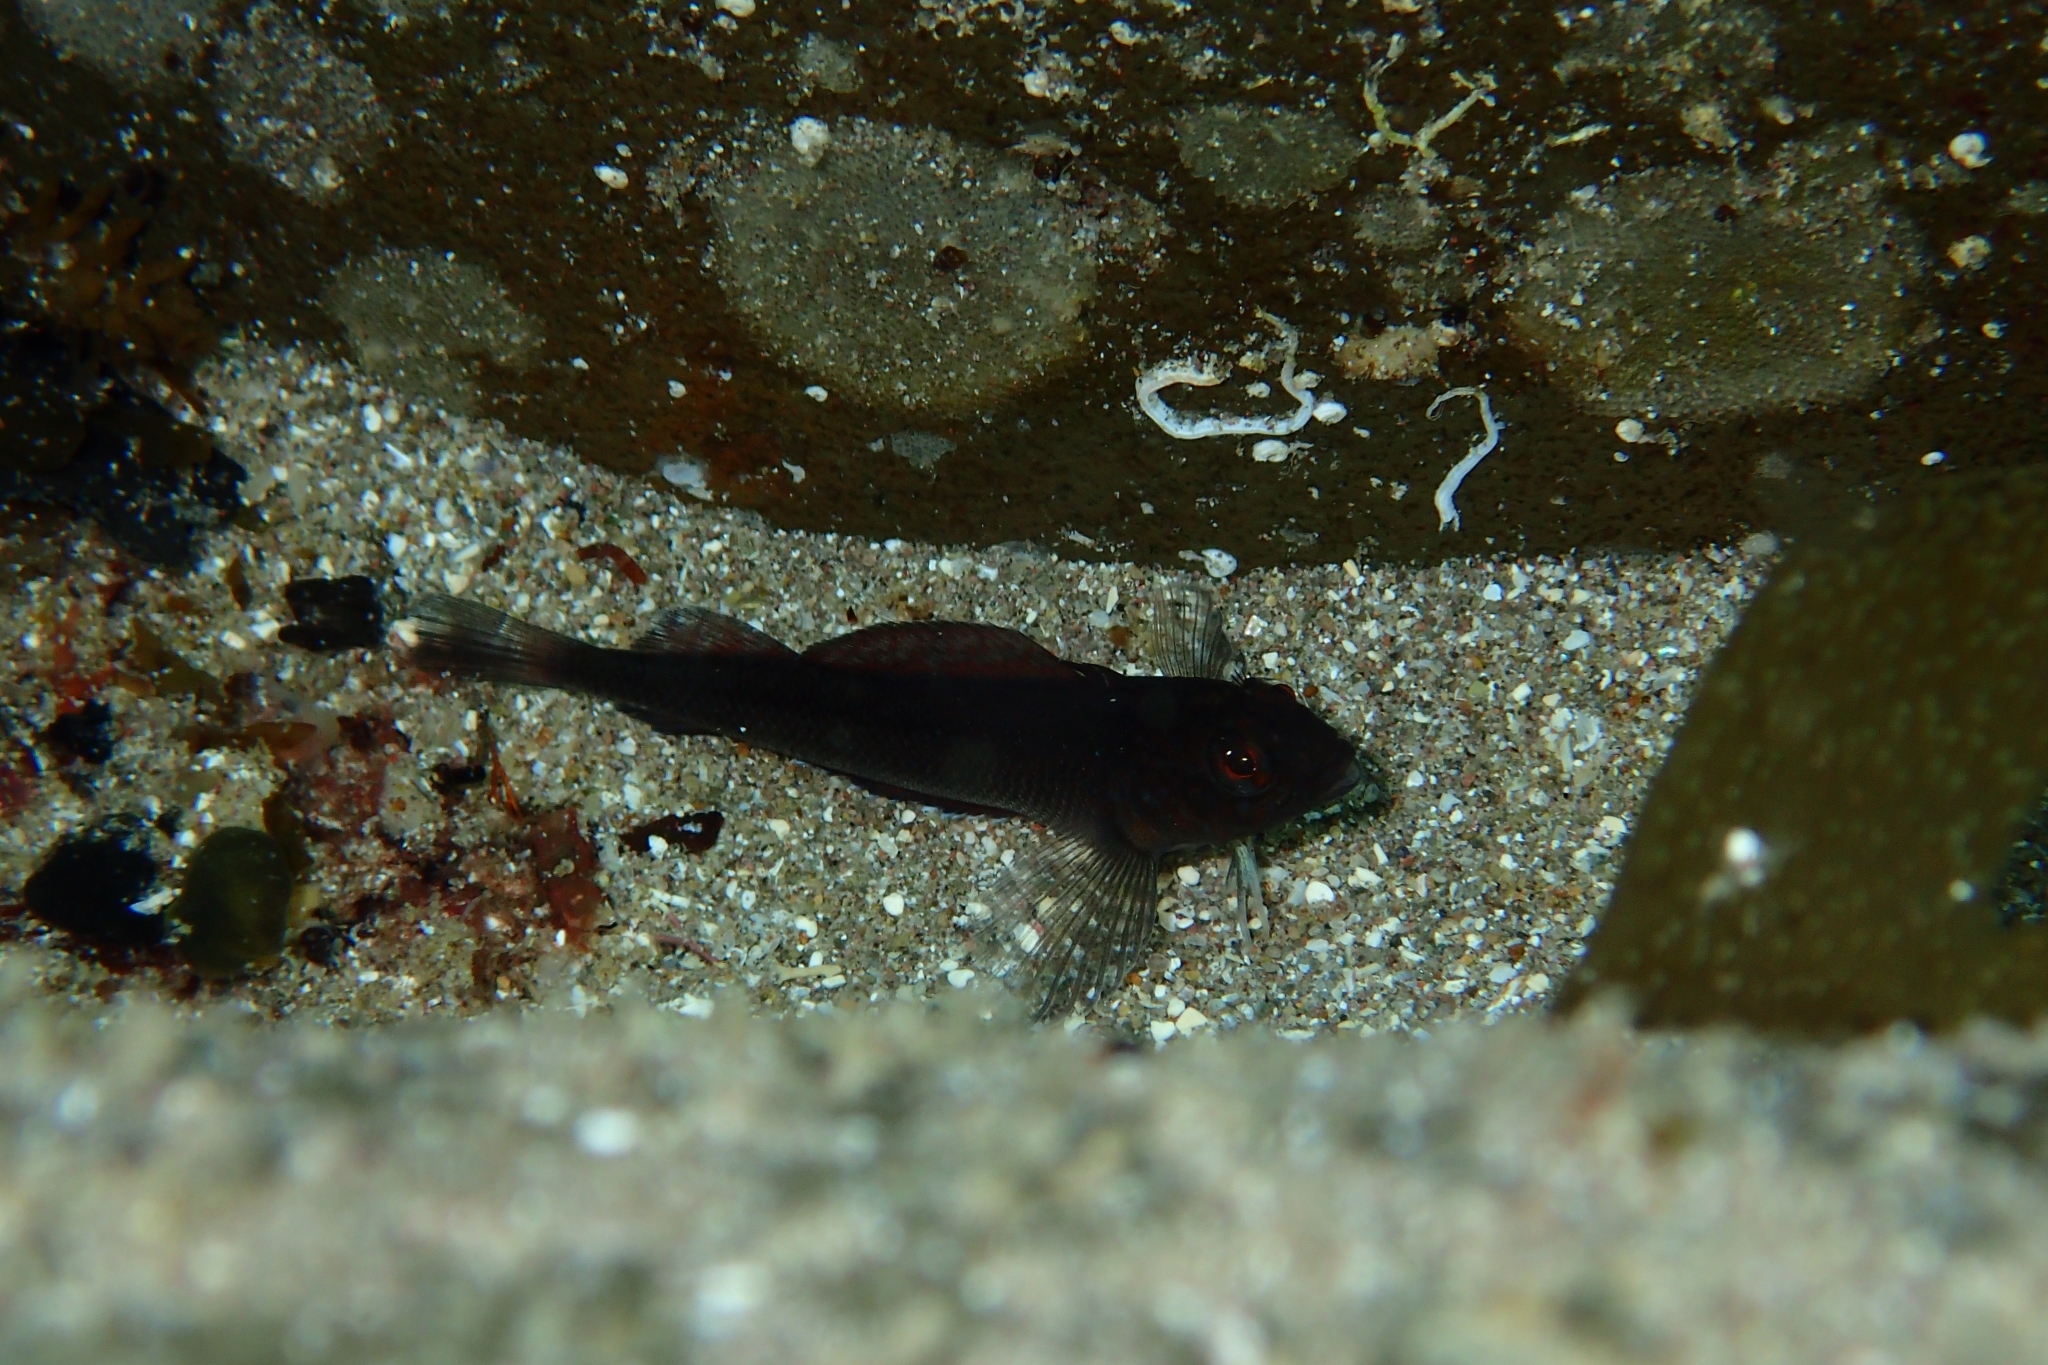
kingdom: Animalia
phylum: Chordata
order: Perciformes
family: Tripterygiidae
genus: Forsterygion
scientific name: Forsterygion lapillum
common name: Common triplefin
